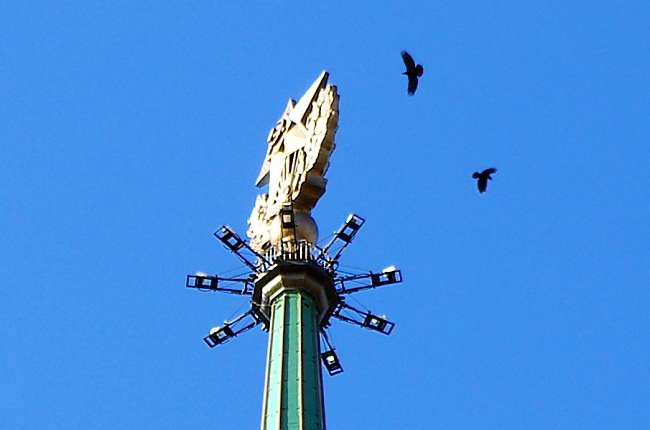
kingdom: Animalia
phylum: Chordata
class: Aves
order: Passeriformes
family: Corvidae
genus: Corvus
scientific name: Corvus corax
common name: Common raven
